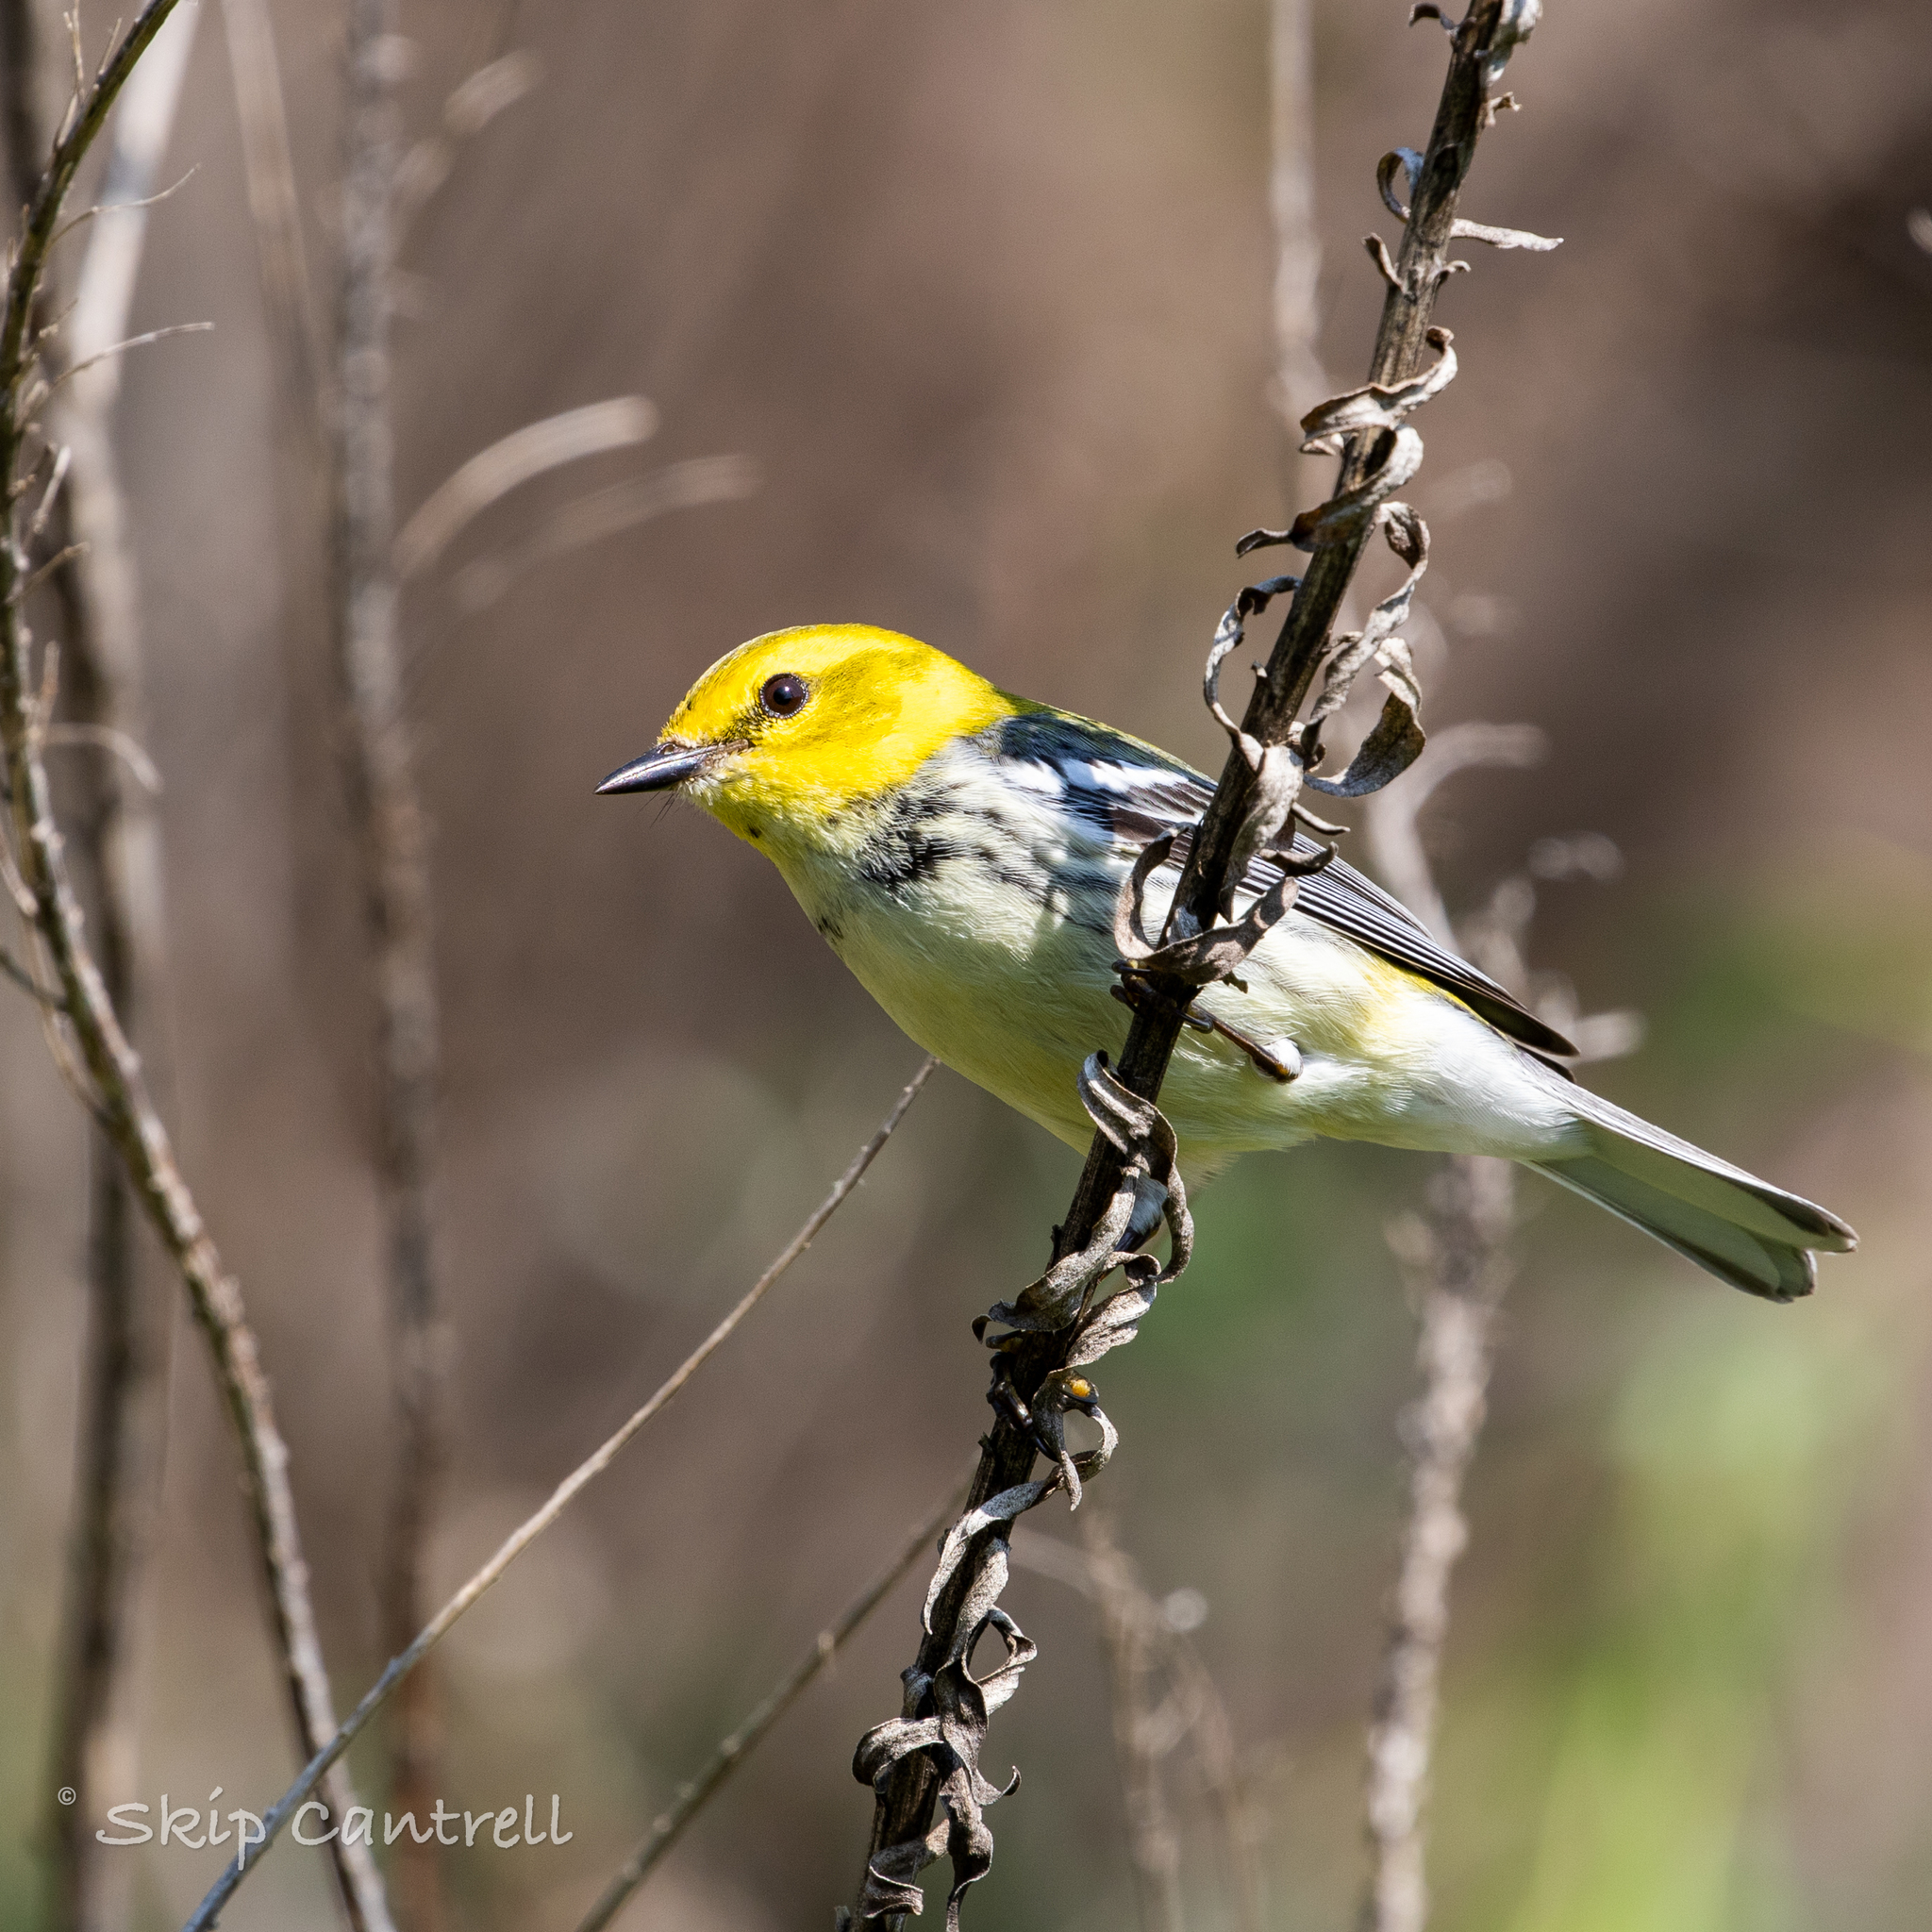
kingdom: Animalia
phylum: Chordata
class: Aves
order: Passeriformes
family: Parulidae
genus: Setophaga
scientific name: Setophaga virens
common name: Black-throated green warbler
